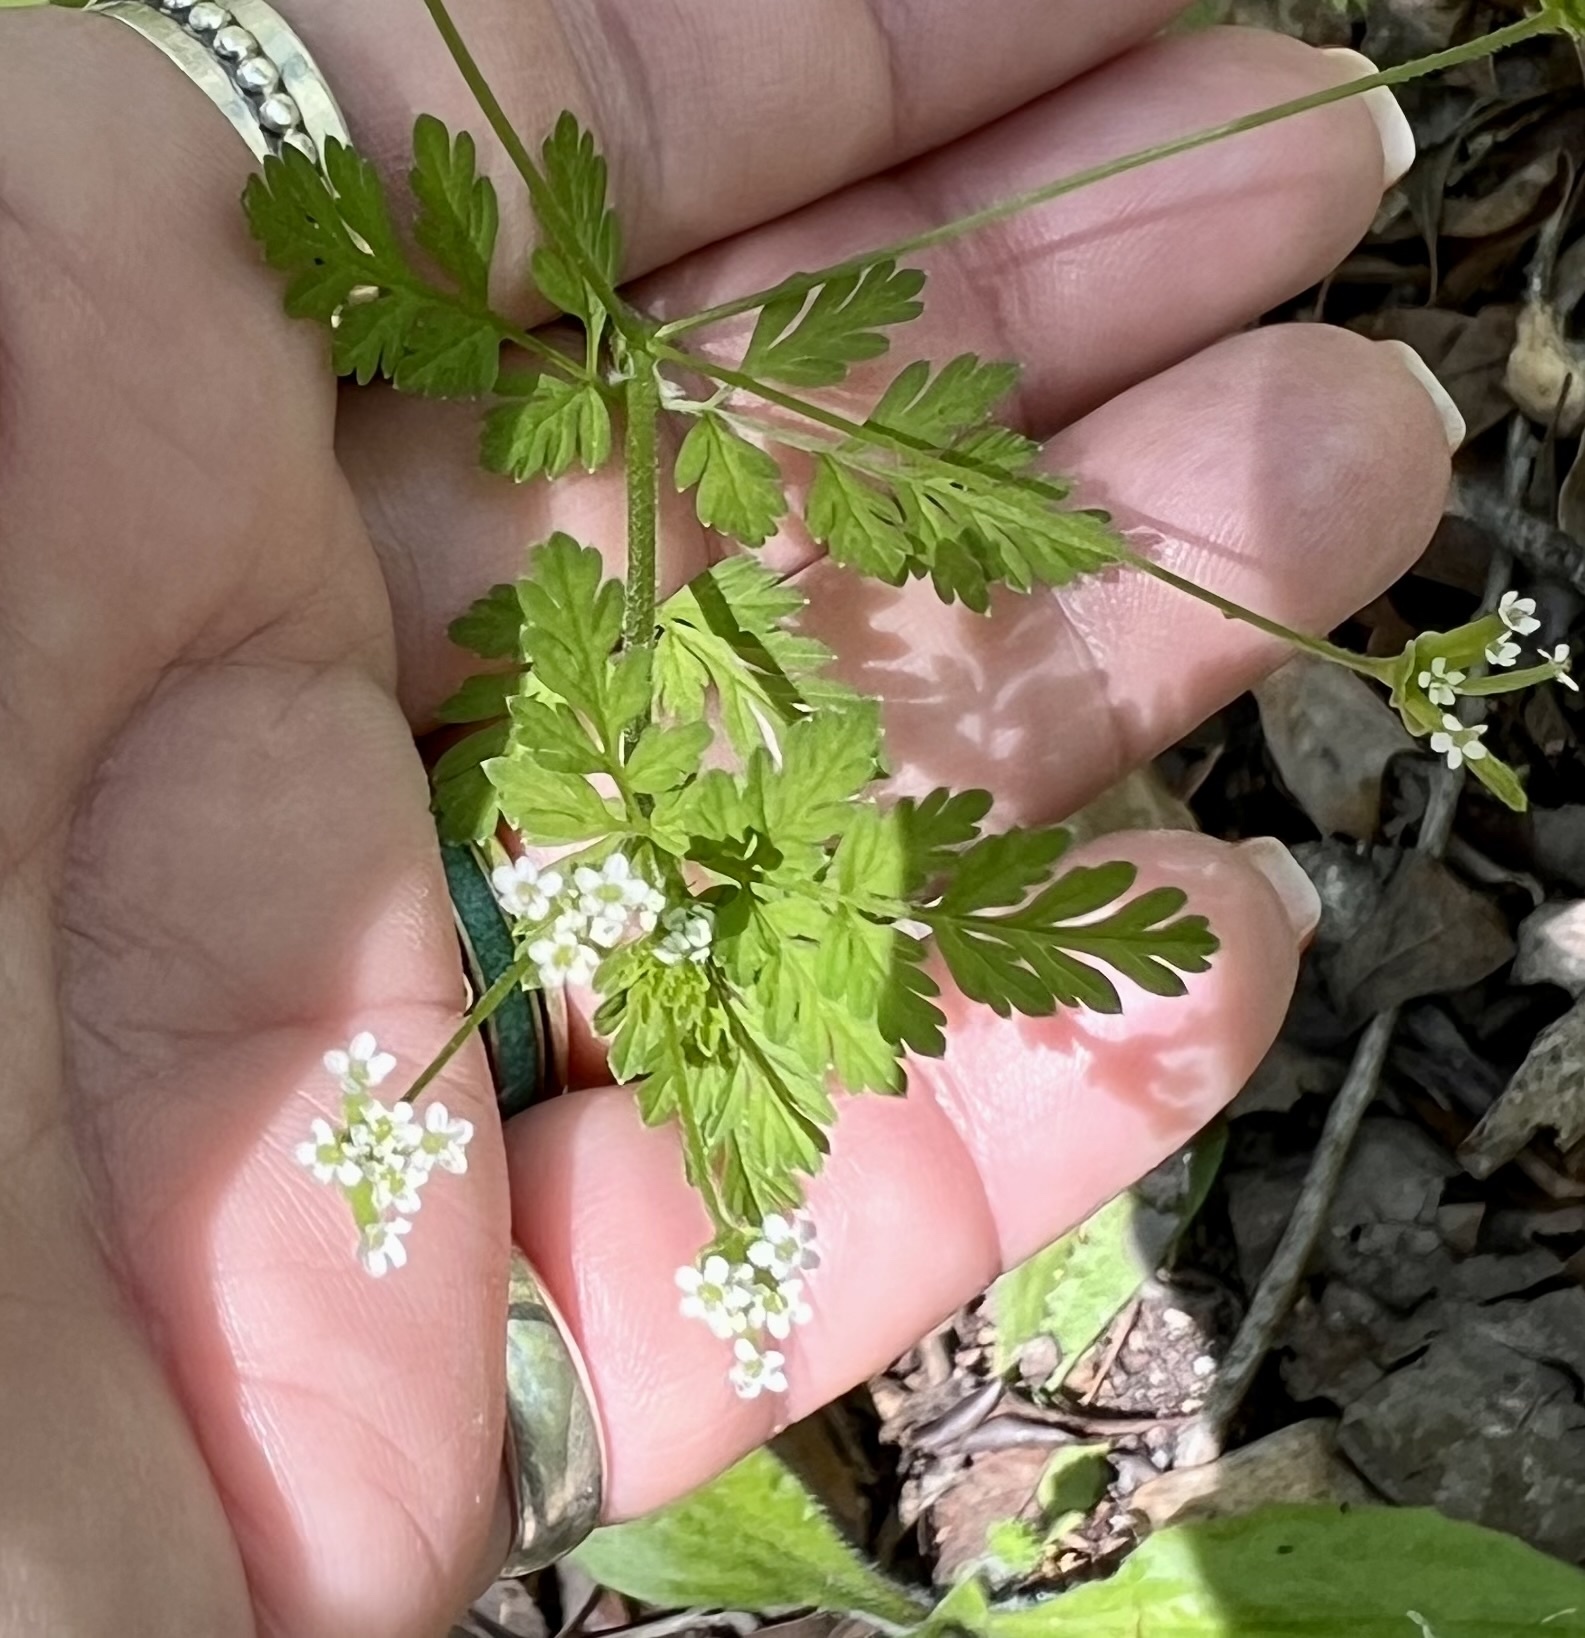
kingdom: Plantae
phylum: Tracheophyta
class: Magnoliopsida
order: Apiales
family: Apiaceae
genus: Chaerophyllum
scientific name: Chaerophyllum tainturieri
